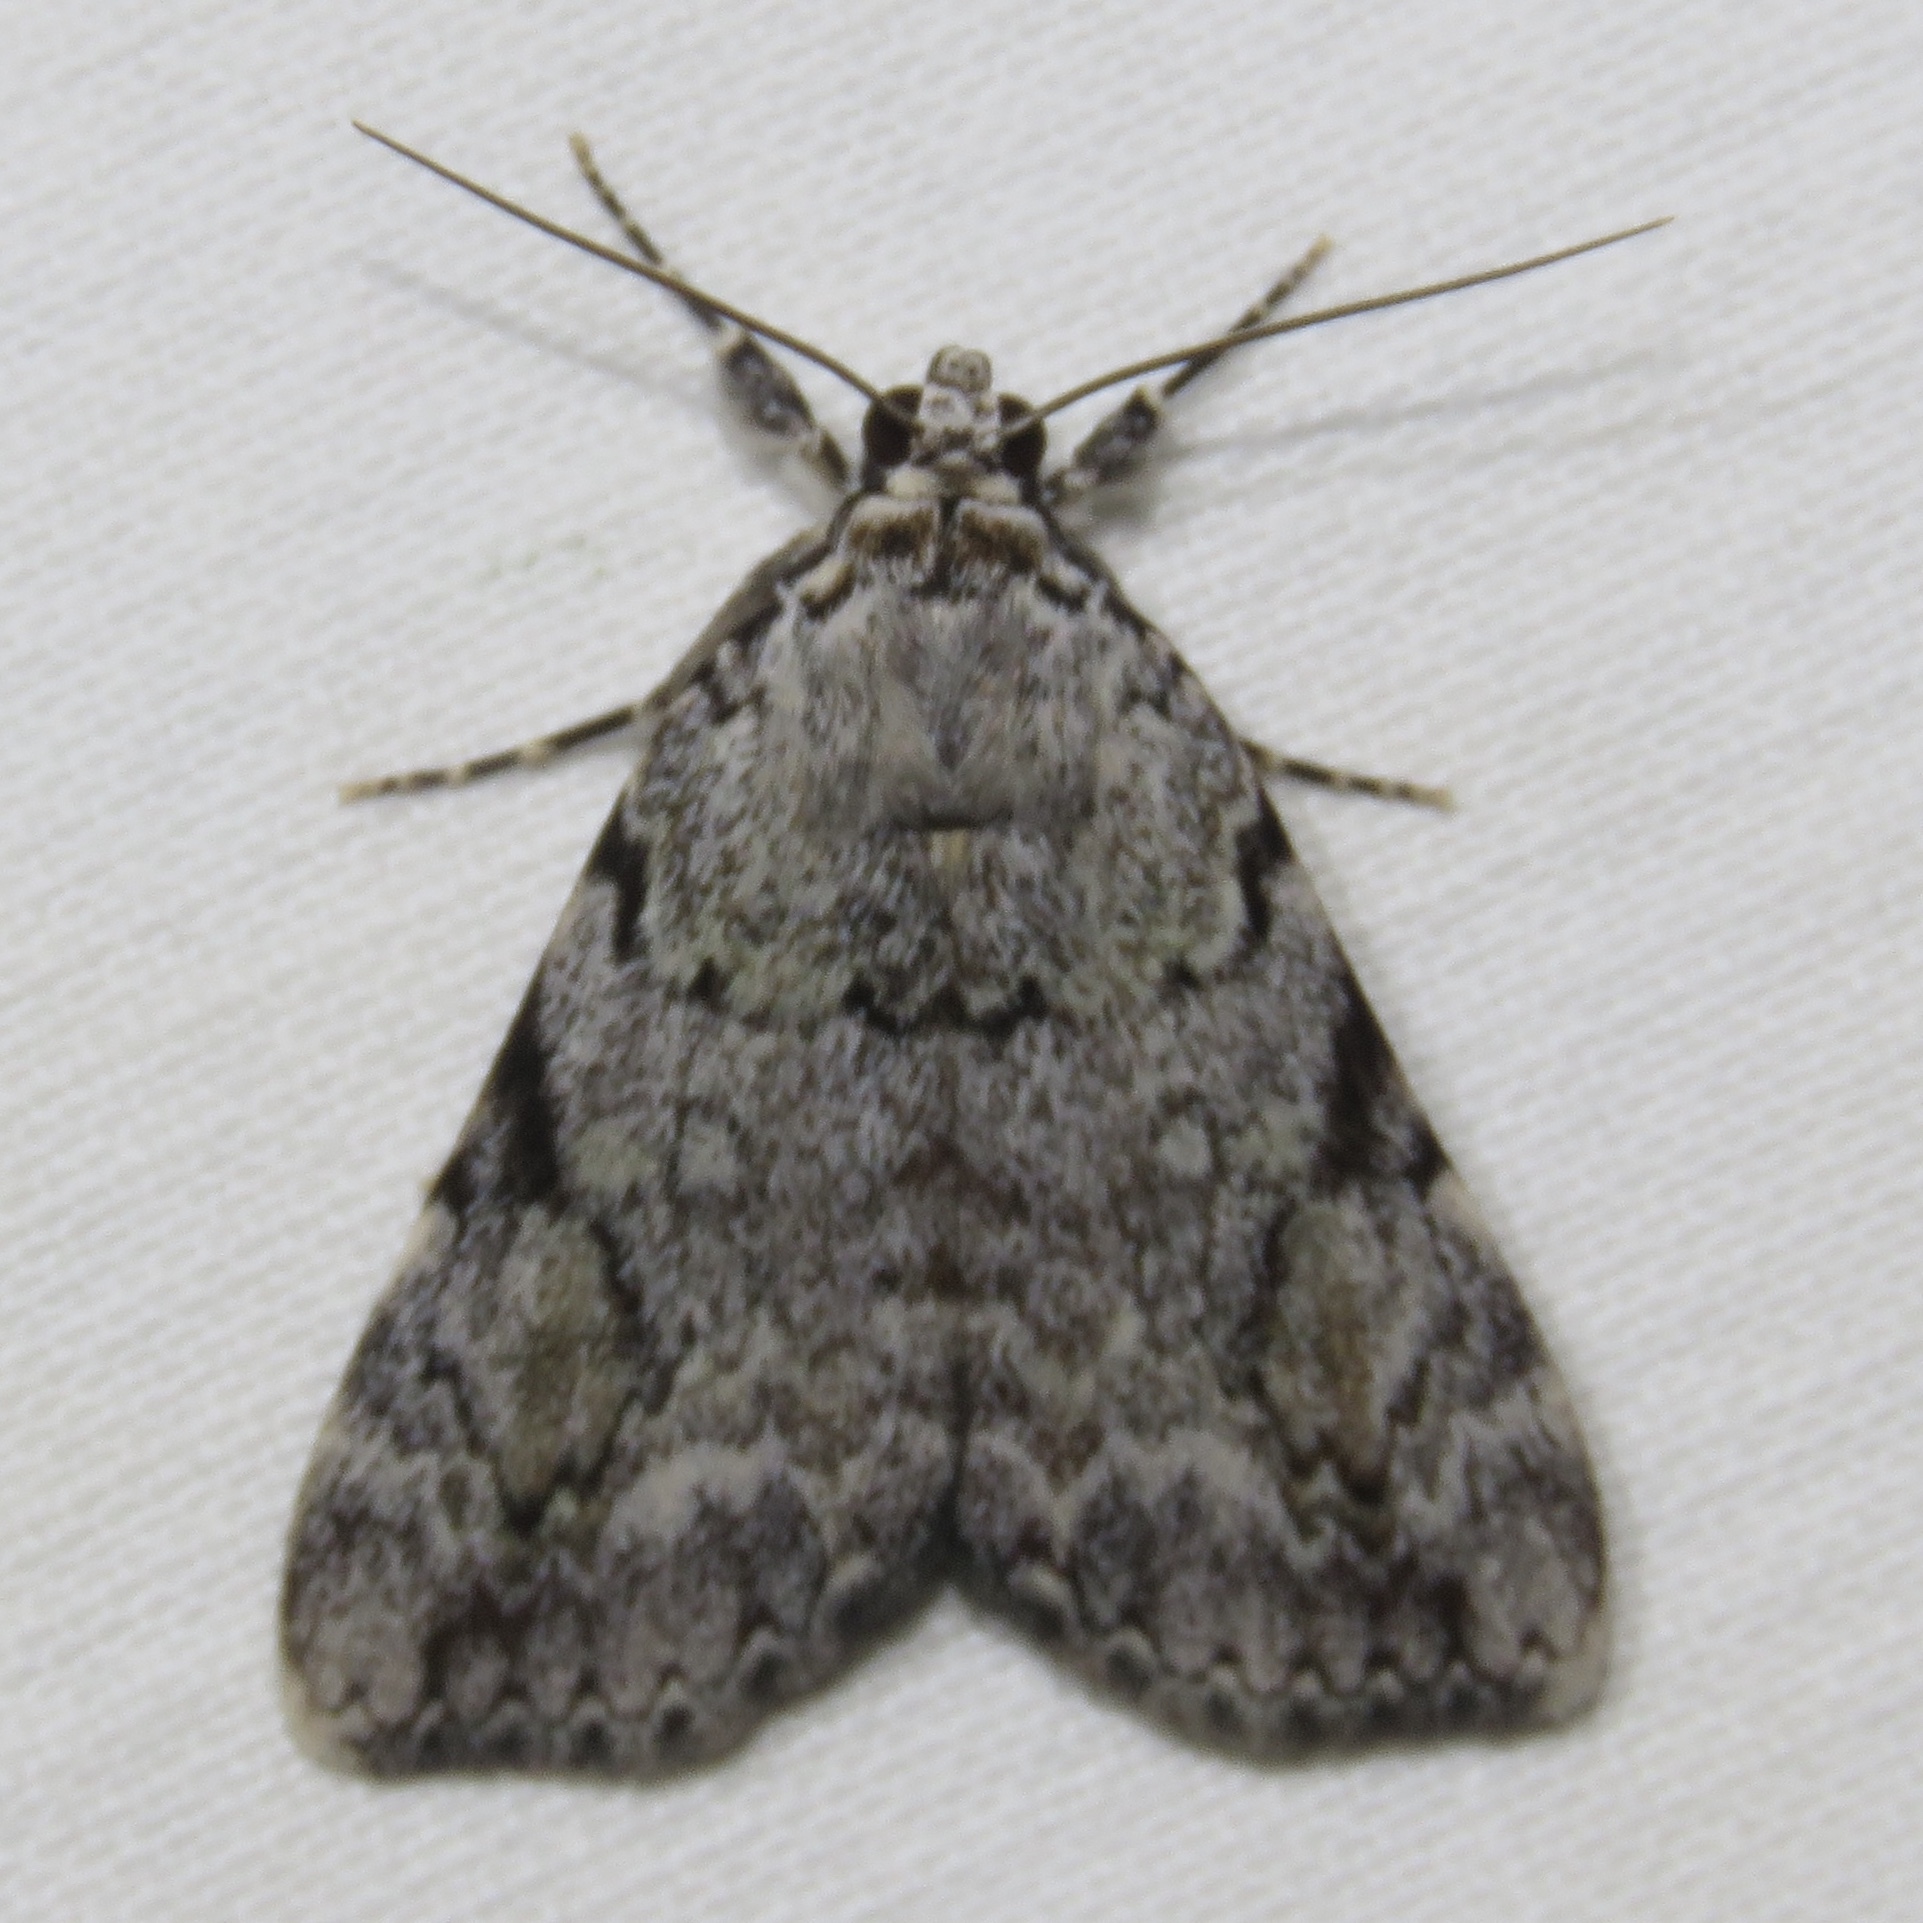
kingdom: Animalia
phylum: Arthropoda
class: Insecta
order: Lepidoptera
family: Erebidae
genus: Catocala
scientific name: Catocala amica
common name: Girlfriend underwing
